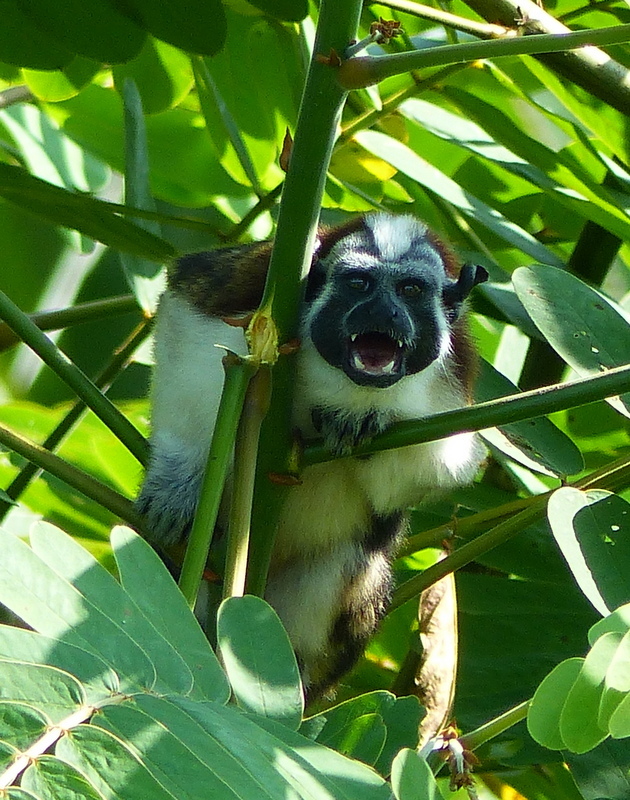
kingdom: Animalia
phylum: Chordata
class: Mammalia
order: Primates
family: Callitrichidae
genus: Saguinus
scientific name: Saguinus geoffroyi
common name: Geoffroy s tamarin
